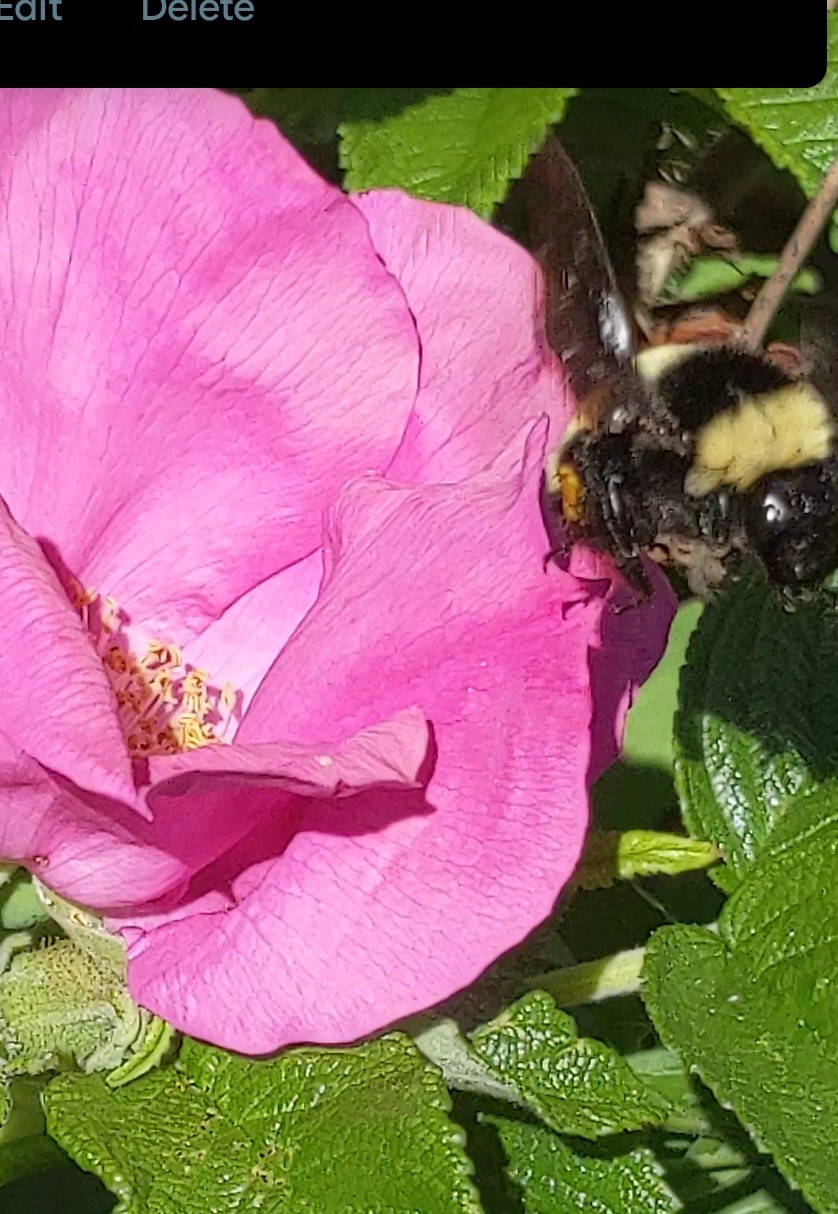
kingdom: Animalia
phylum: Arthropoda
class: Insecta
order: Hymenoptera
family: Apidae
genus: Bombus
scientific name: Bombus pensylvanicus
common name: Bumble bee
